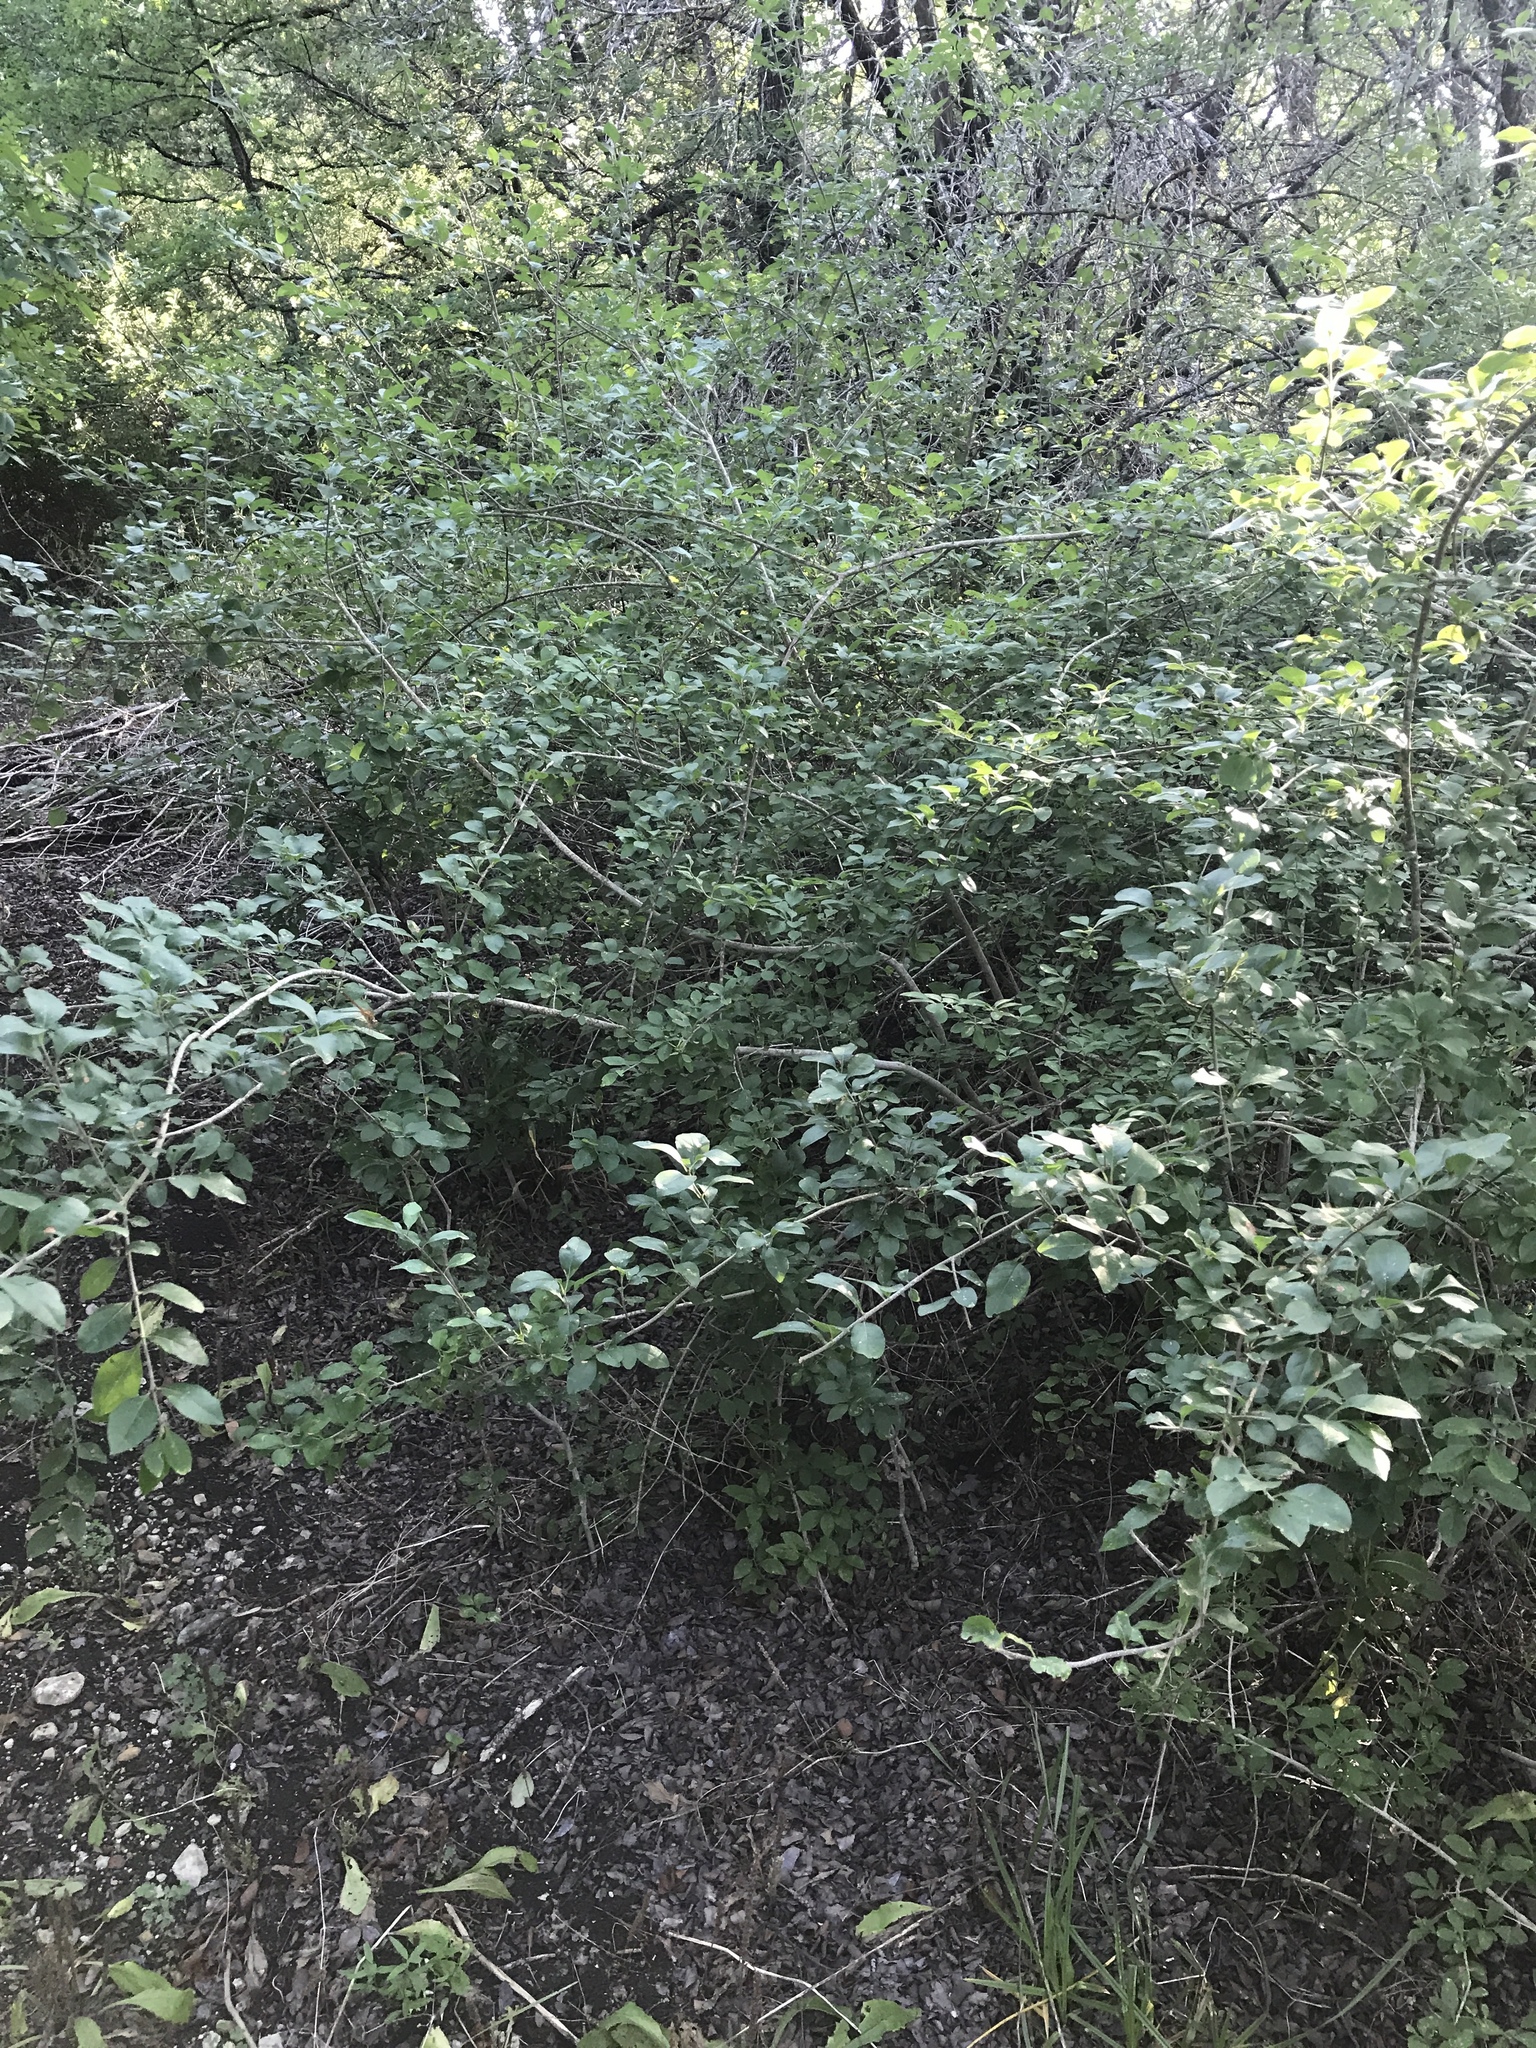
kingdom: Plantae
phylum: Tracheophyta
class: Magnoliopsida
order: Lamiales
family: Oleaceae
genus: Forestiera
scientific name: Forestiera pubescens
